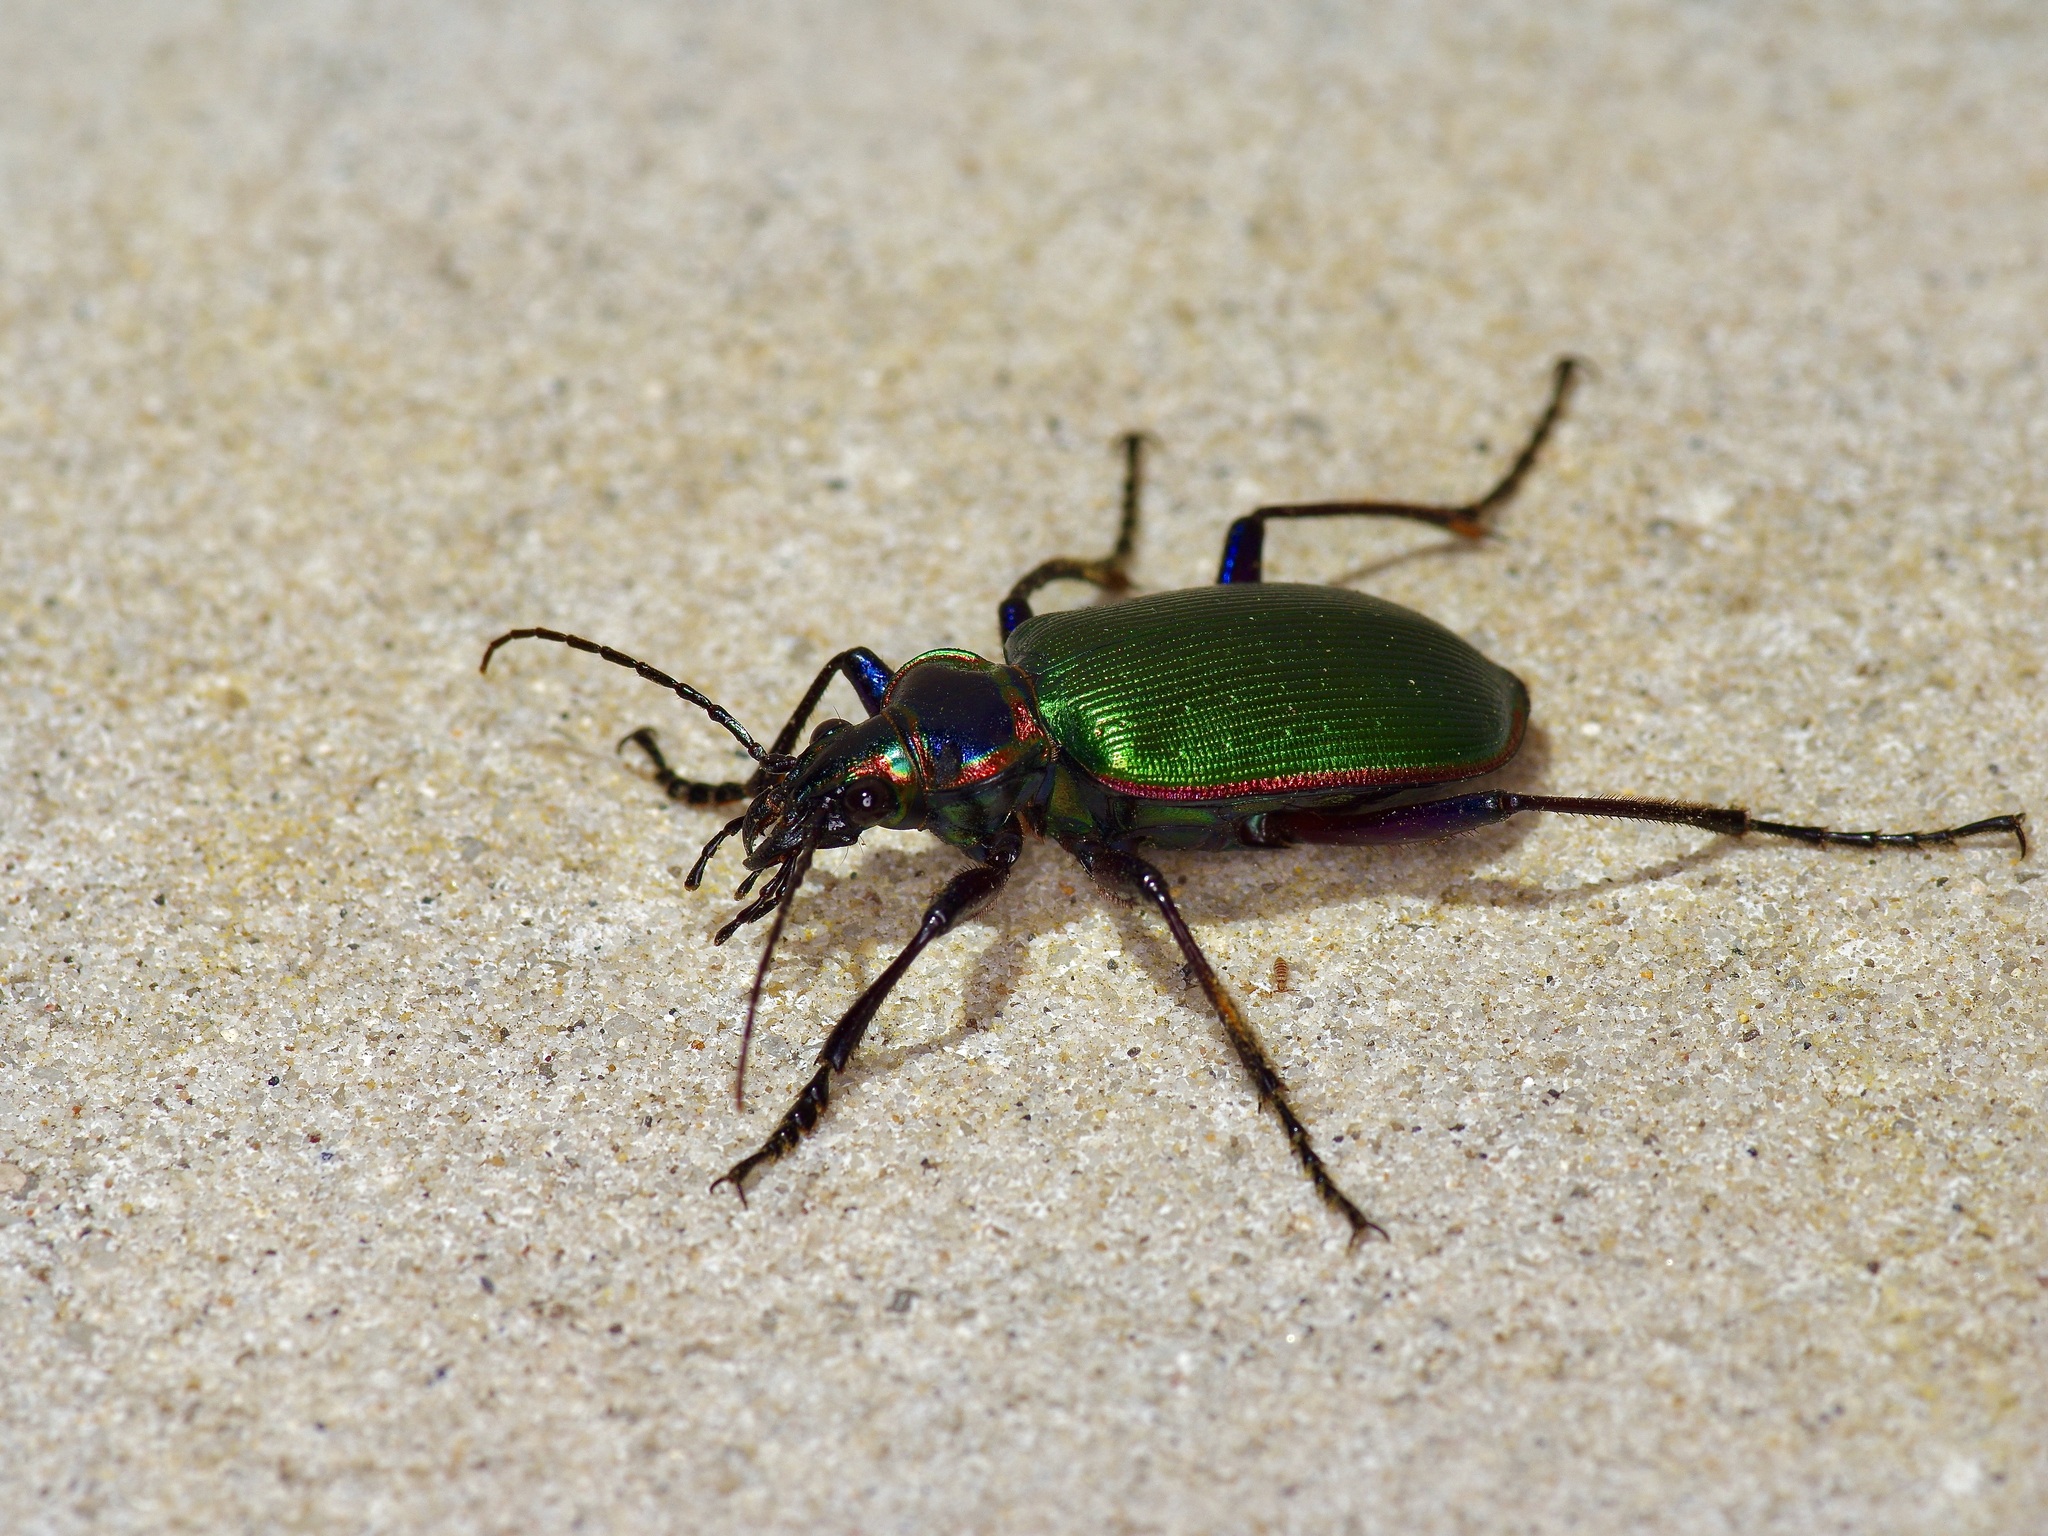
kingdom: Animalia
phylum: Arthropoda
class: Insecta
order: Coleoptera
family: Carabidae
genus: Calosoma
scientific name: Calosoma scrutator
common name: Fiery searcher beetle
